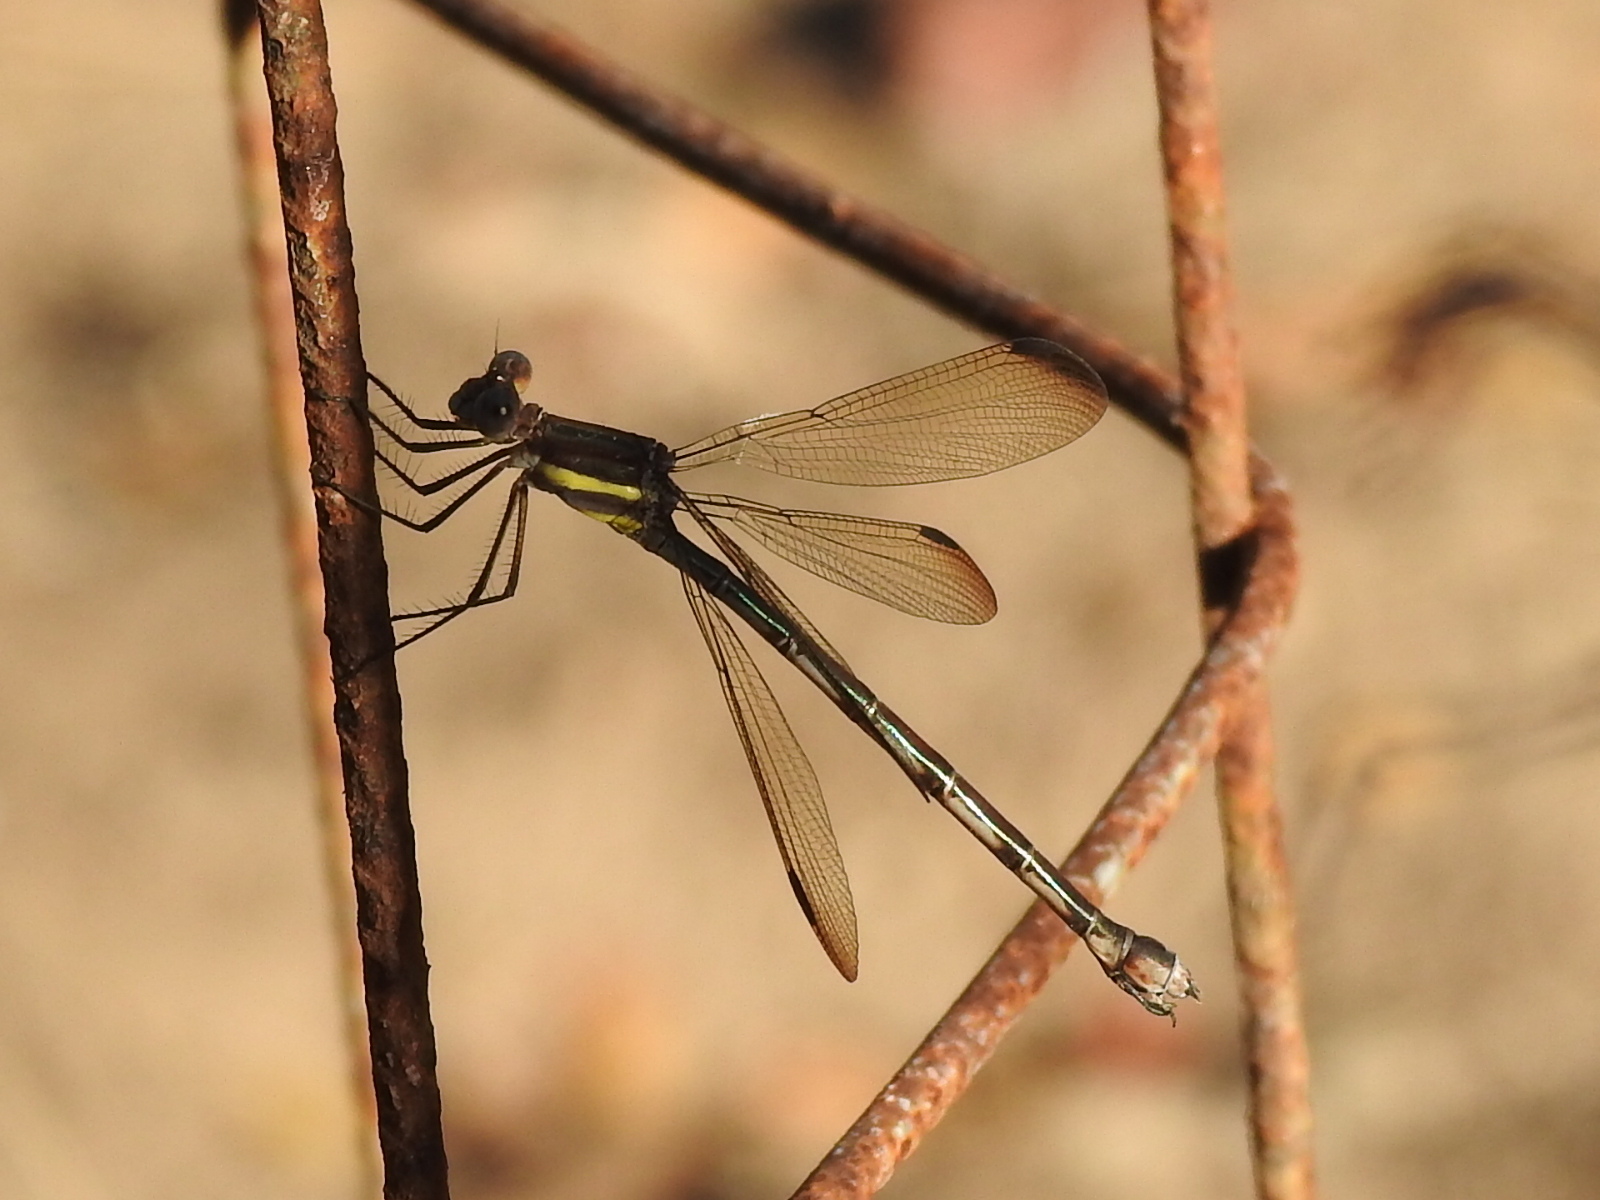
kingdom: Animalia
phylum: Arthropoda
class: Insecta
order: Odonata
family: Lestidae
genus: Archilestes
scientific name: Archilestes grandis
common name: Great spreadwing
